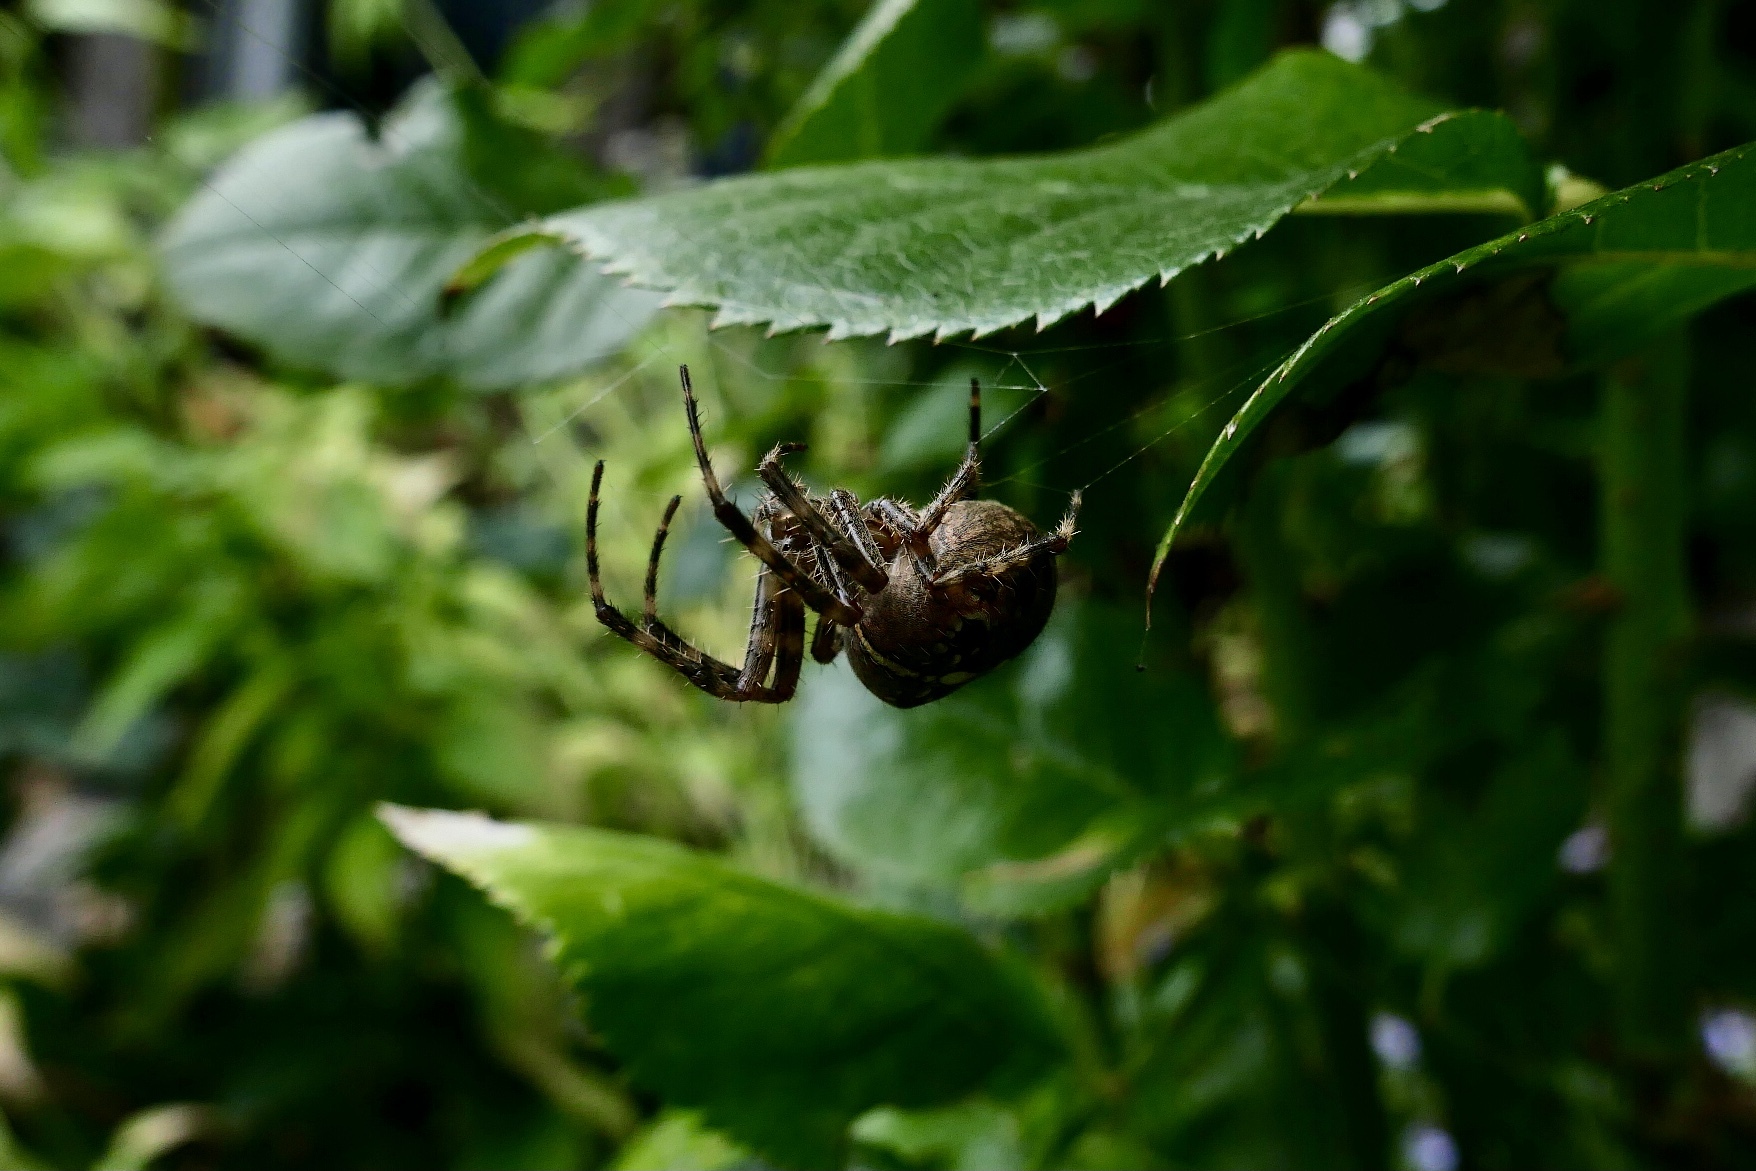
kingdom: Animalia
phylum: Arthropoda
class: Arachnida
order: Araneae
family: Araneidae
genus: Araneus
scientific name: Araneus diadematus
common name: Cross orbweaver
